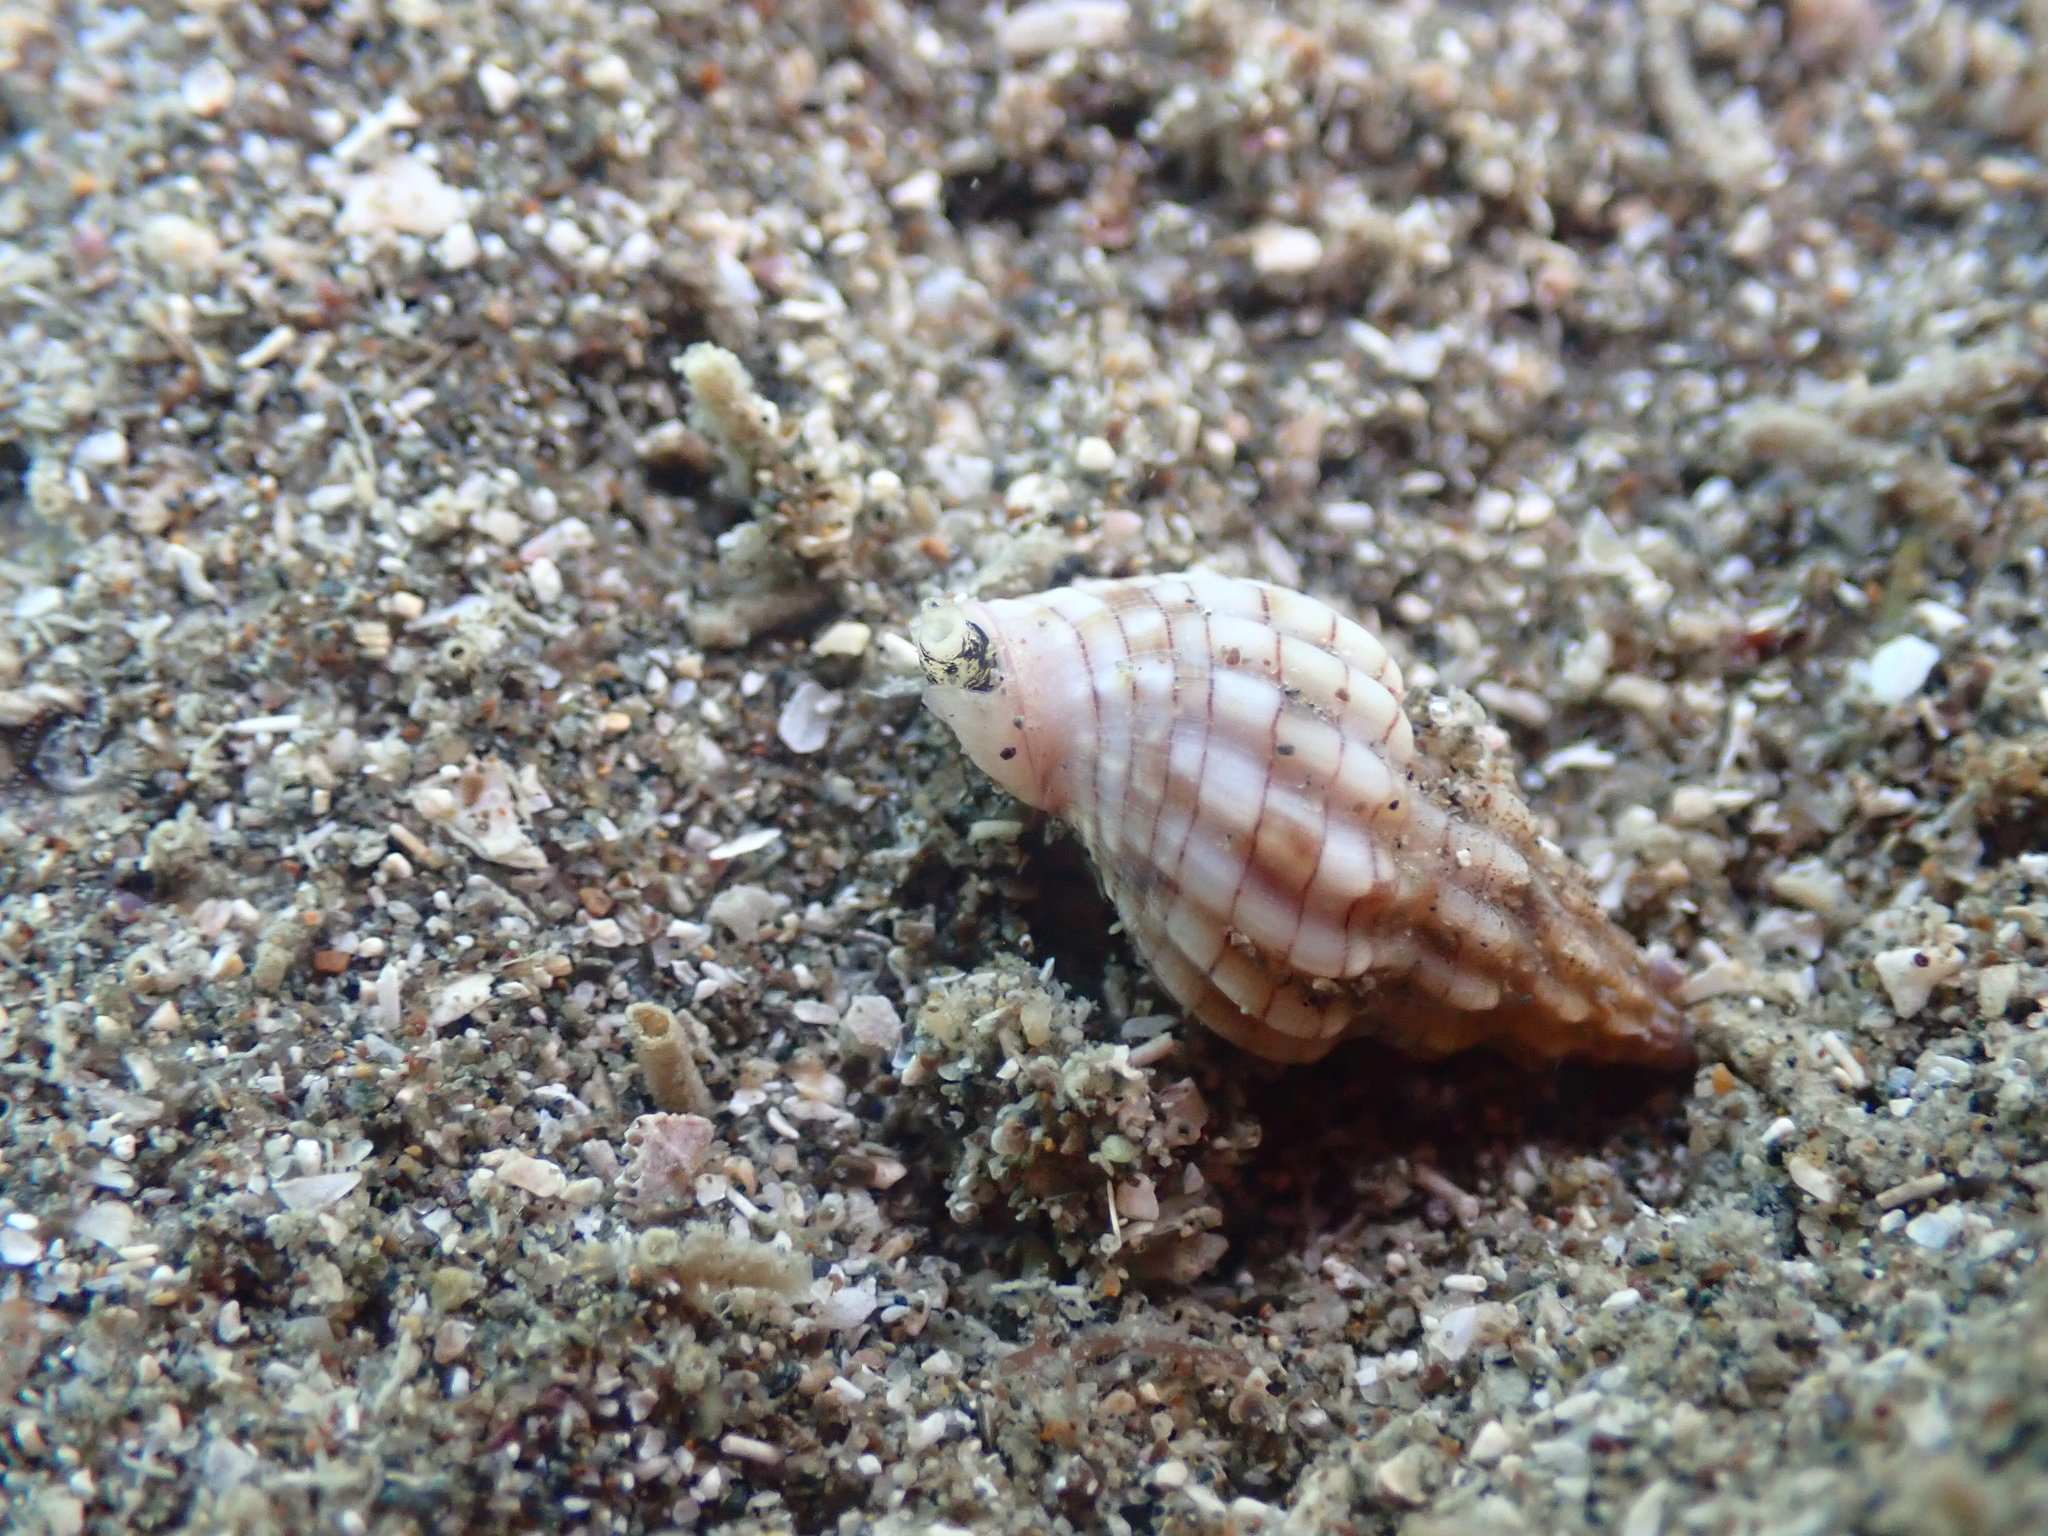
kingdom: Animalia
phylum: Mollusca
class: Gastropoda
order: Neogastropoda
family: Cominellidae
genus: Cominella
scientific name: Cominella quoyana
